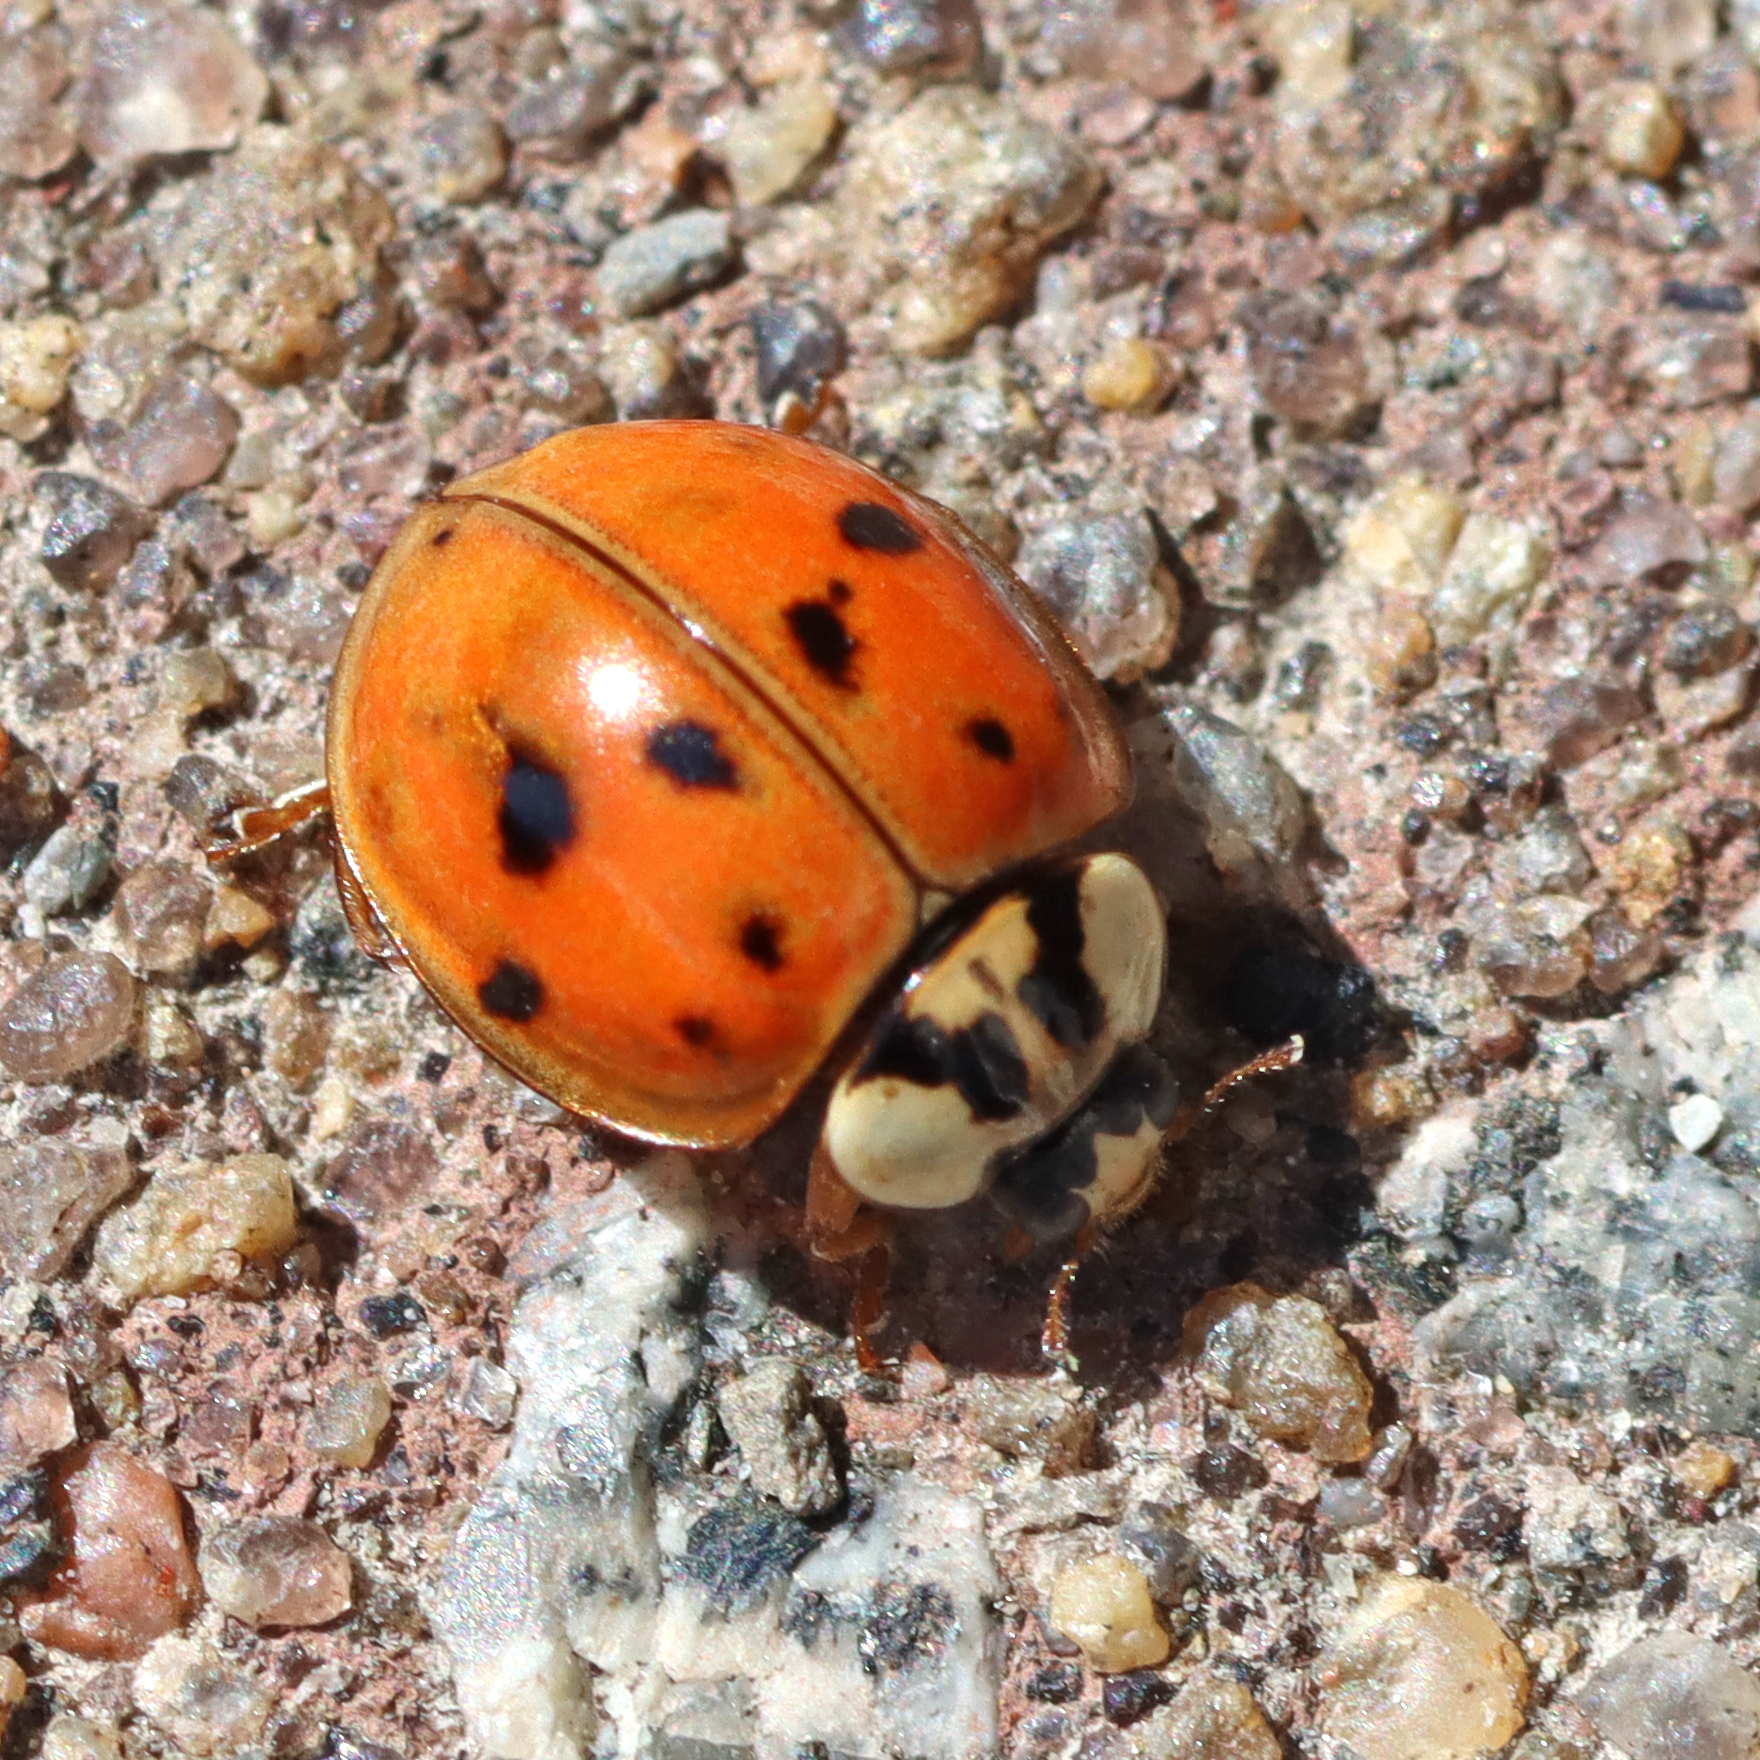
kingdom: Animalia
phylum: Arthropoda
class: Insecta
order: Coleoptera
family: Coccinellidae
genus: Harmonia
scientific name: Harmonia axyridis
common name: Harlequin ladybird
